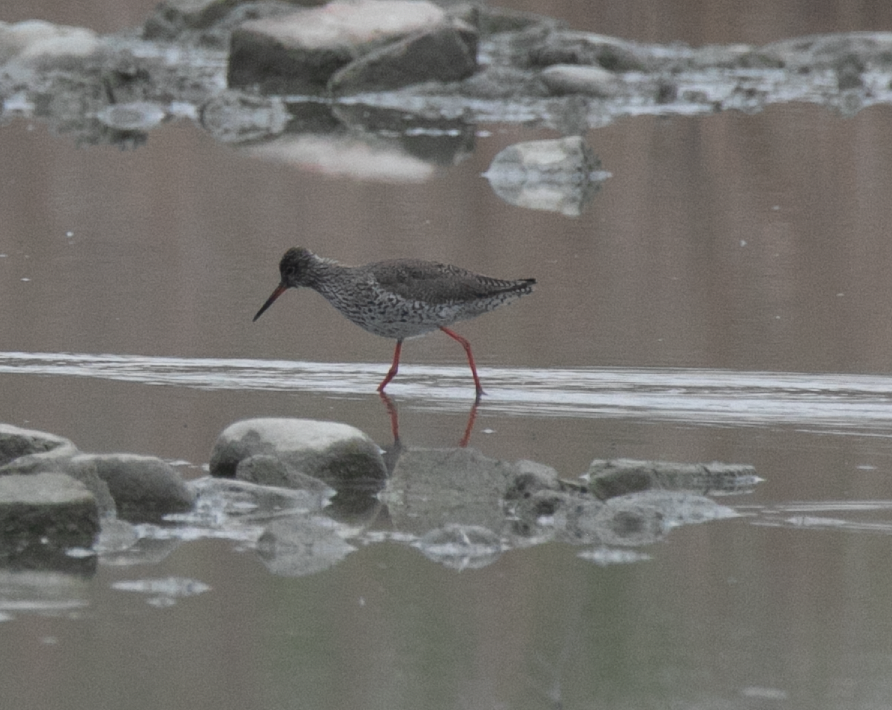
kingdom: Animalia
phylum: Chordata
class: Aves
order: Charadriiformes
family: Scolopacidae
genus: Tringa
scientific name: Tringa totanus
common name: Common redshank
